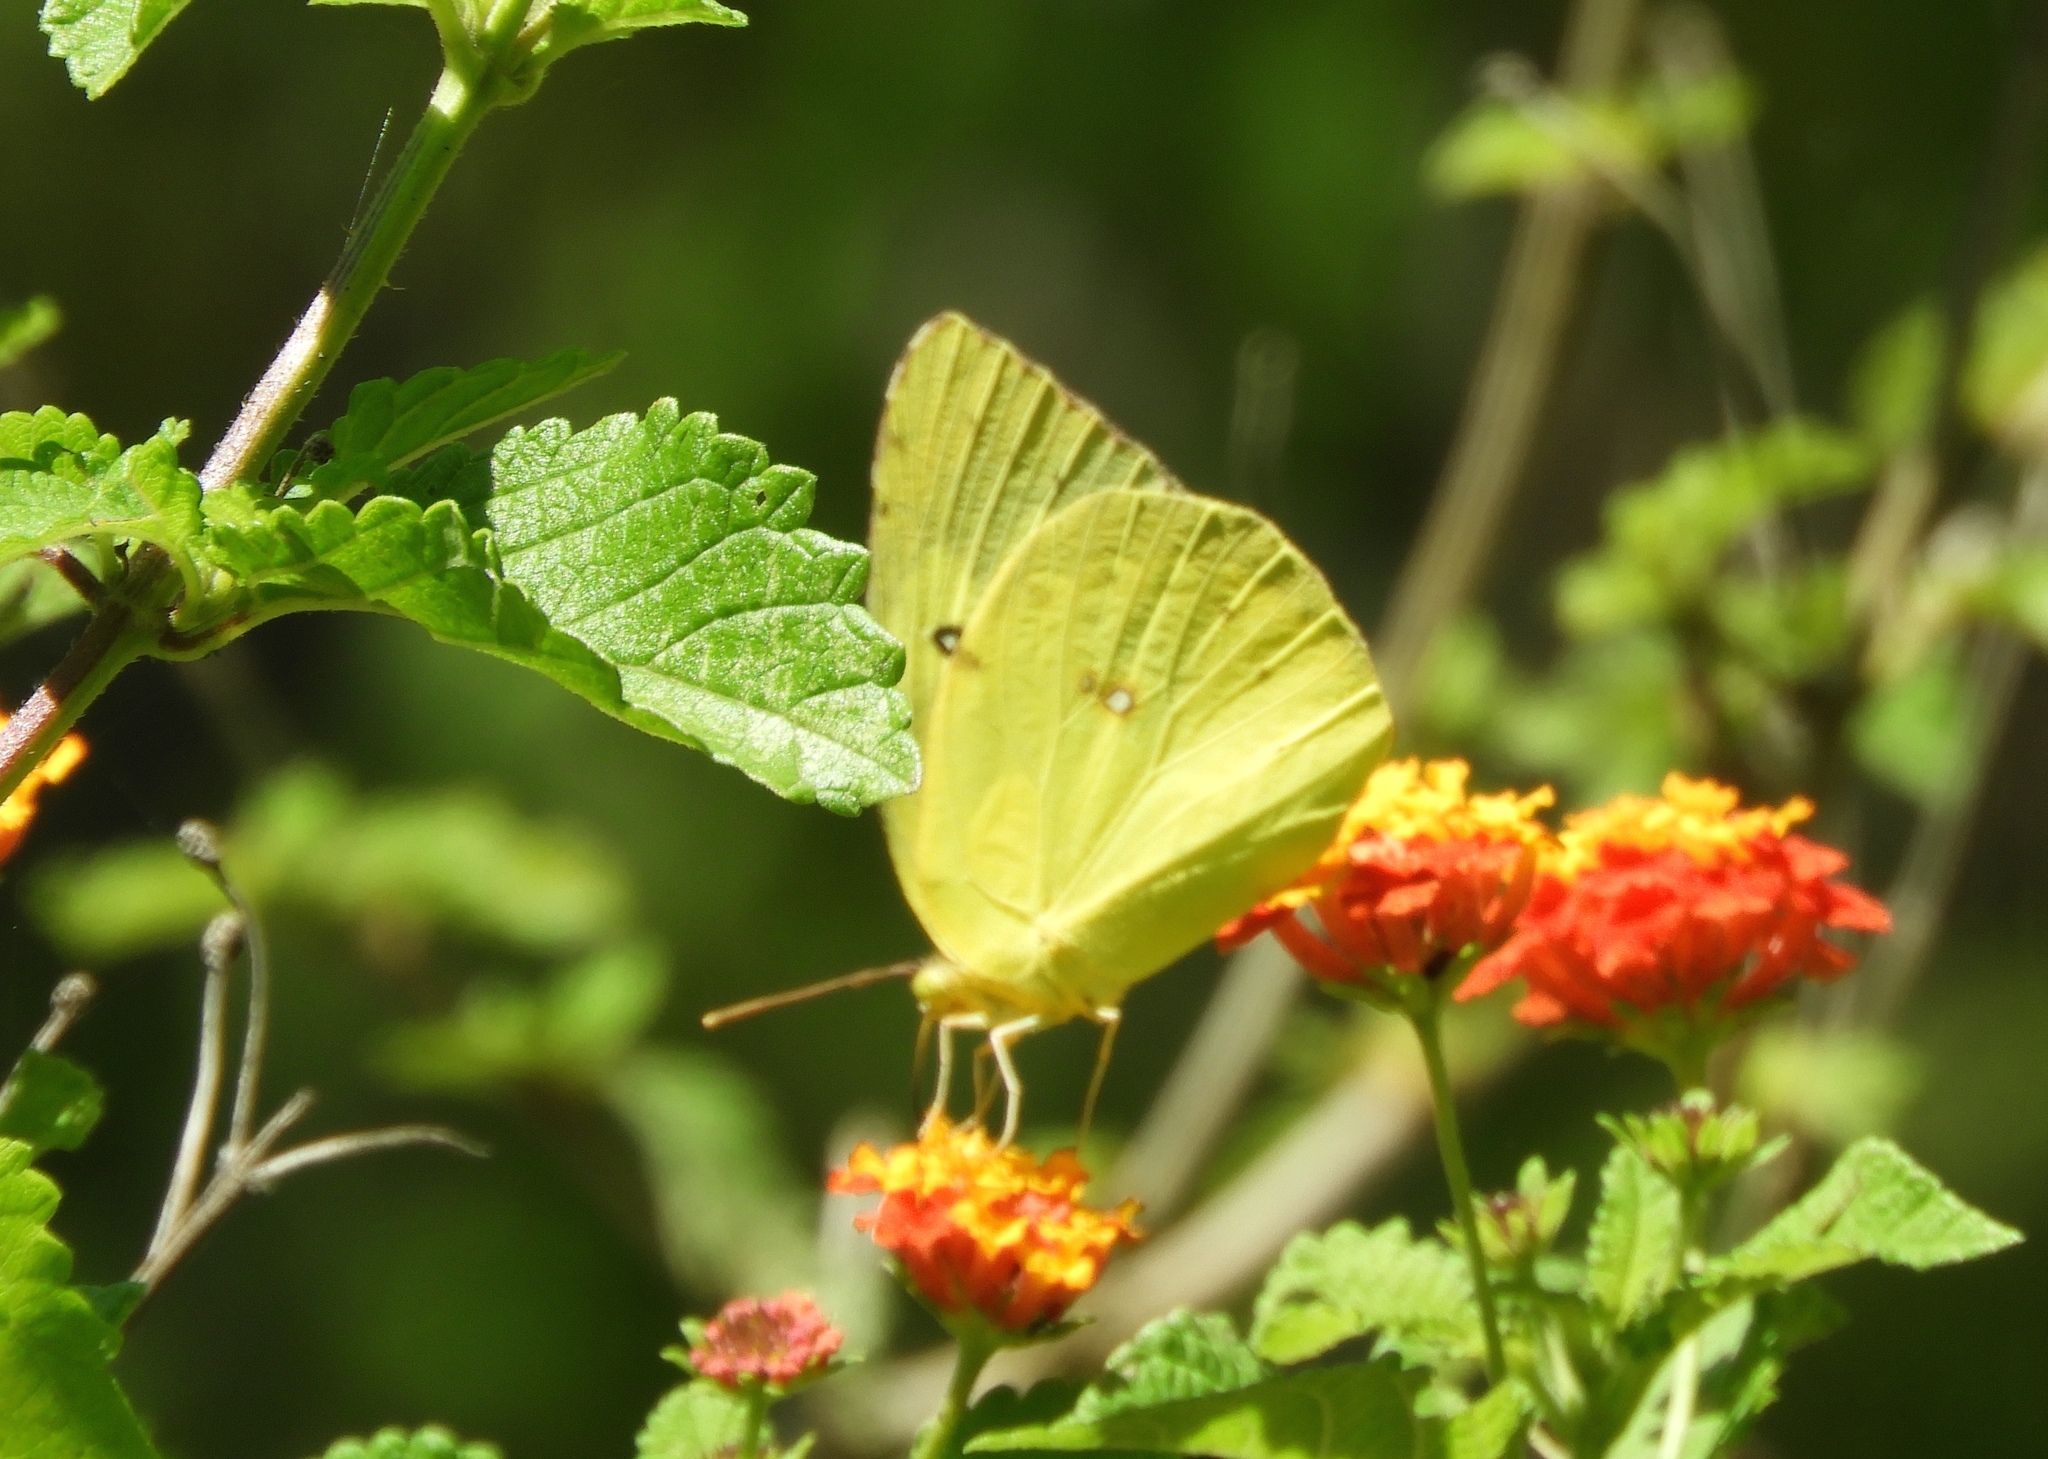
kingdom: Animalia
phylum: Arthropoda
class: Insecta
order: Lepidoptera
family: Pieridae
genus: Zerene
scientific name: Zerene cesonia
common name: Southern dogface
